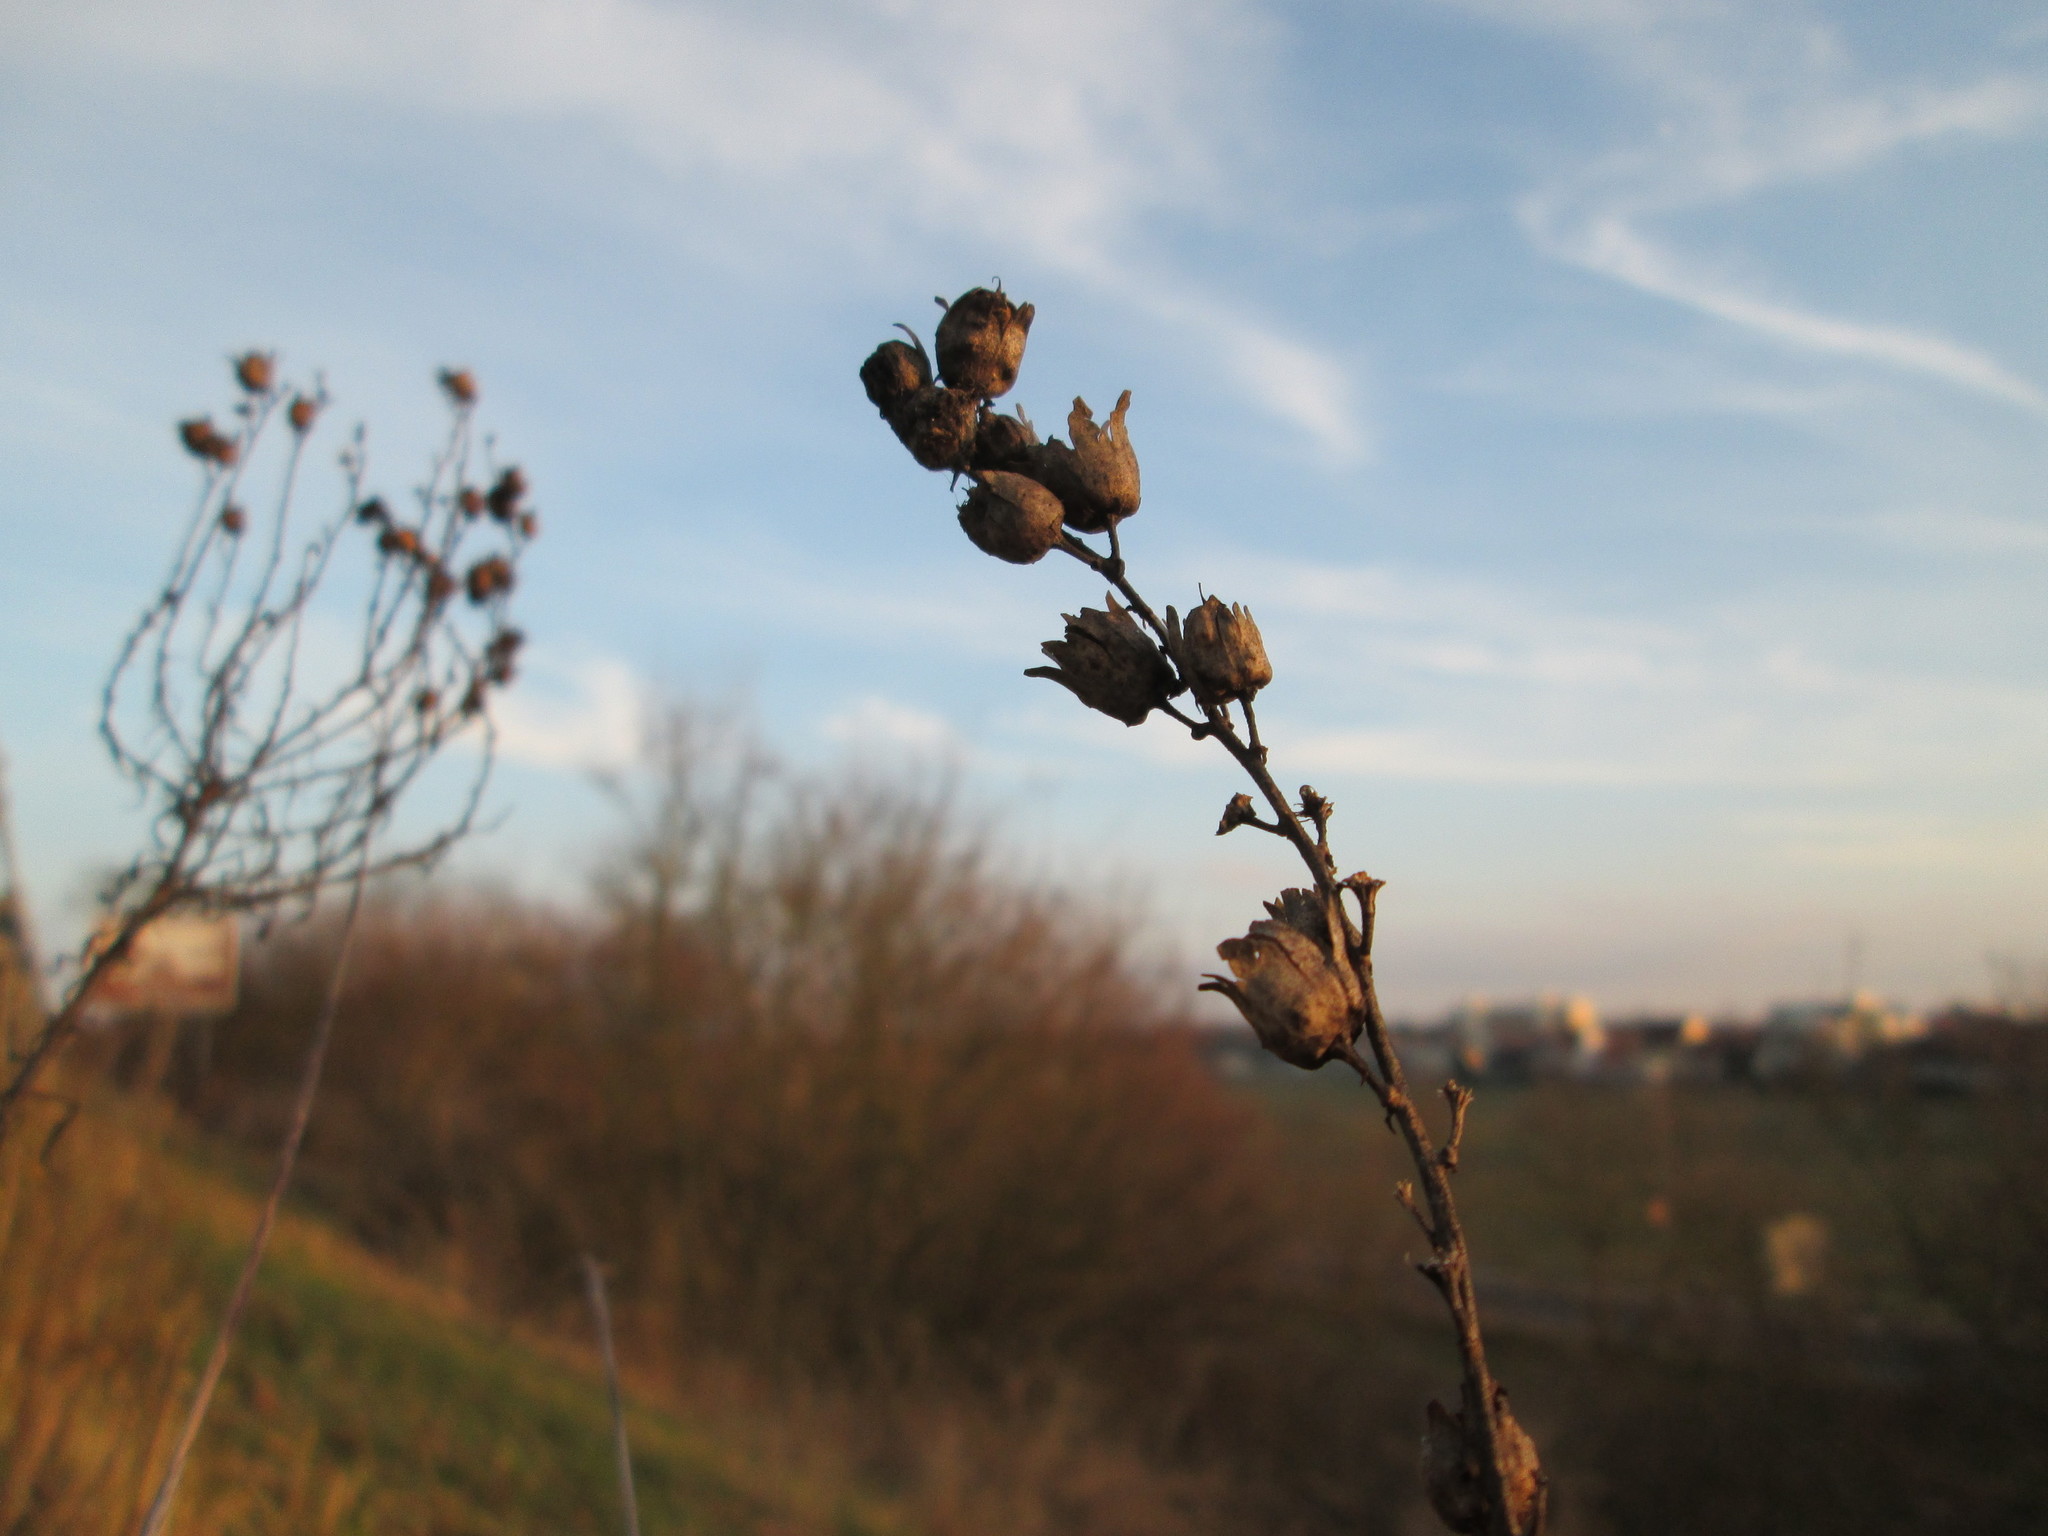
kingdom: Plantae
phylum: Tracheophyta
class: Magnoliopsida
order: Lamiales
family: Plantaginaceae
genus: Linaria
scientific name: Linaria vulgaris
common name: Butter and eggs
